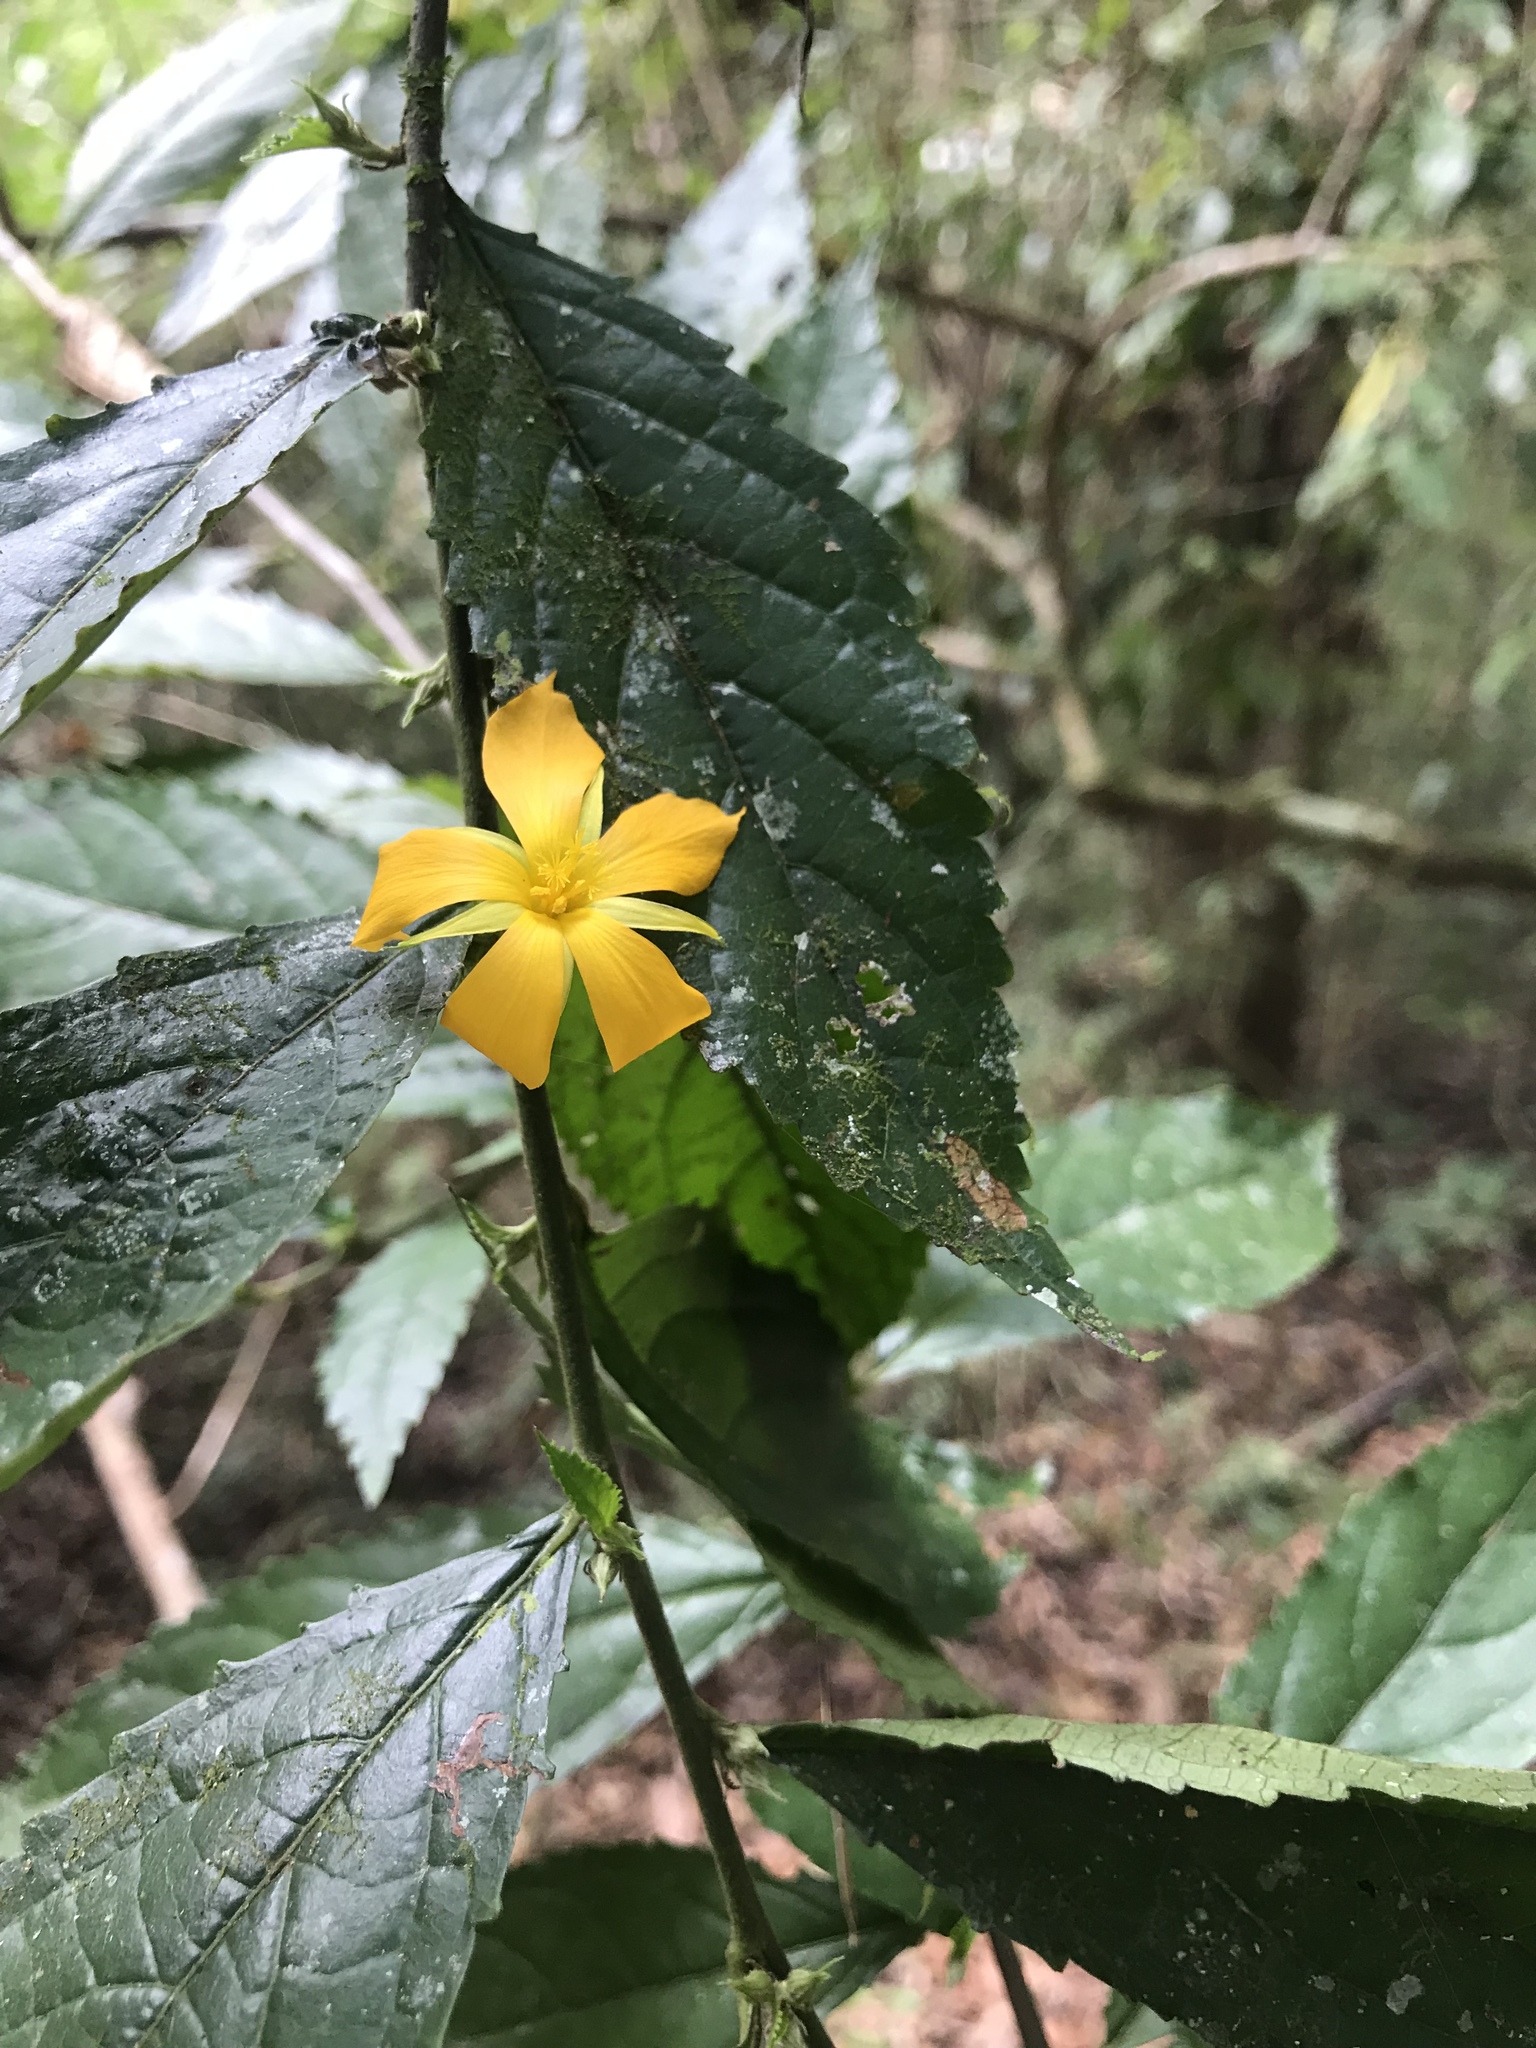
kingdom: Plantae
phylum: Tracheophyta
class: Magnoliopsida
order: Malpighiales
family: Turneraceae
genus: Turnera
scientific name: Turnera panamensis
